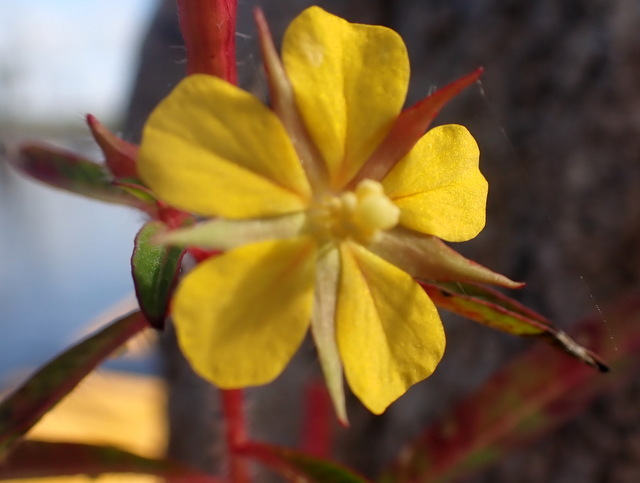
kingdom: Plantae
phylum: Tracheophyta
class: Magnoliopsida
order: Myrtales
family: Onagraceae
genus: Ludwigia
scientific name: Ludwigia leptocarpa
